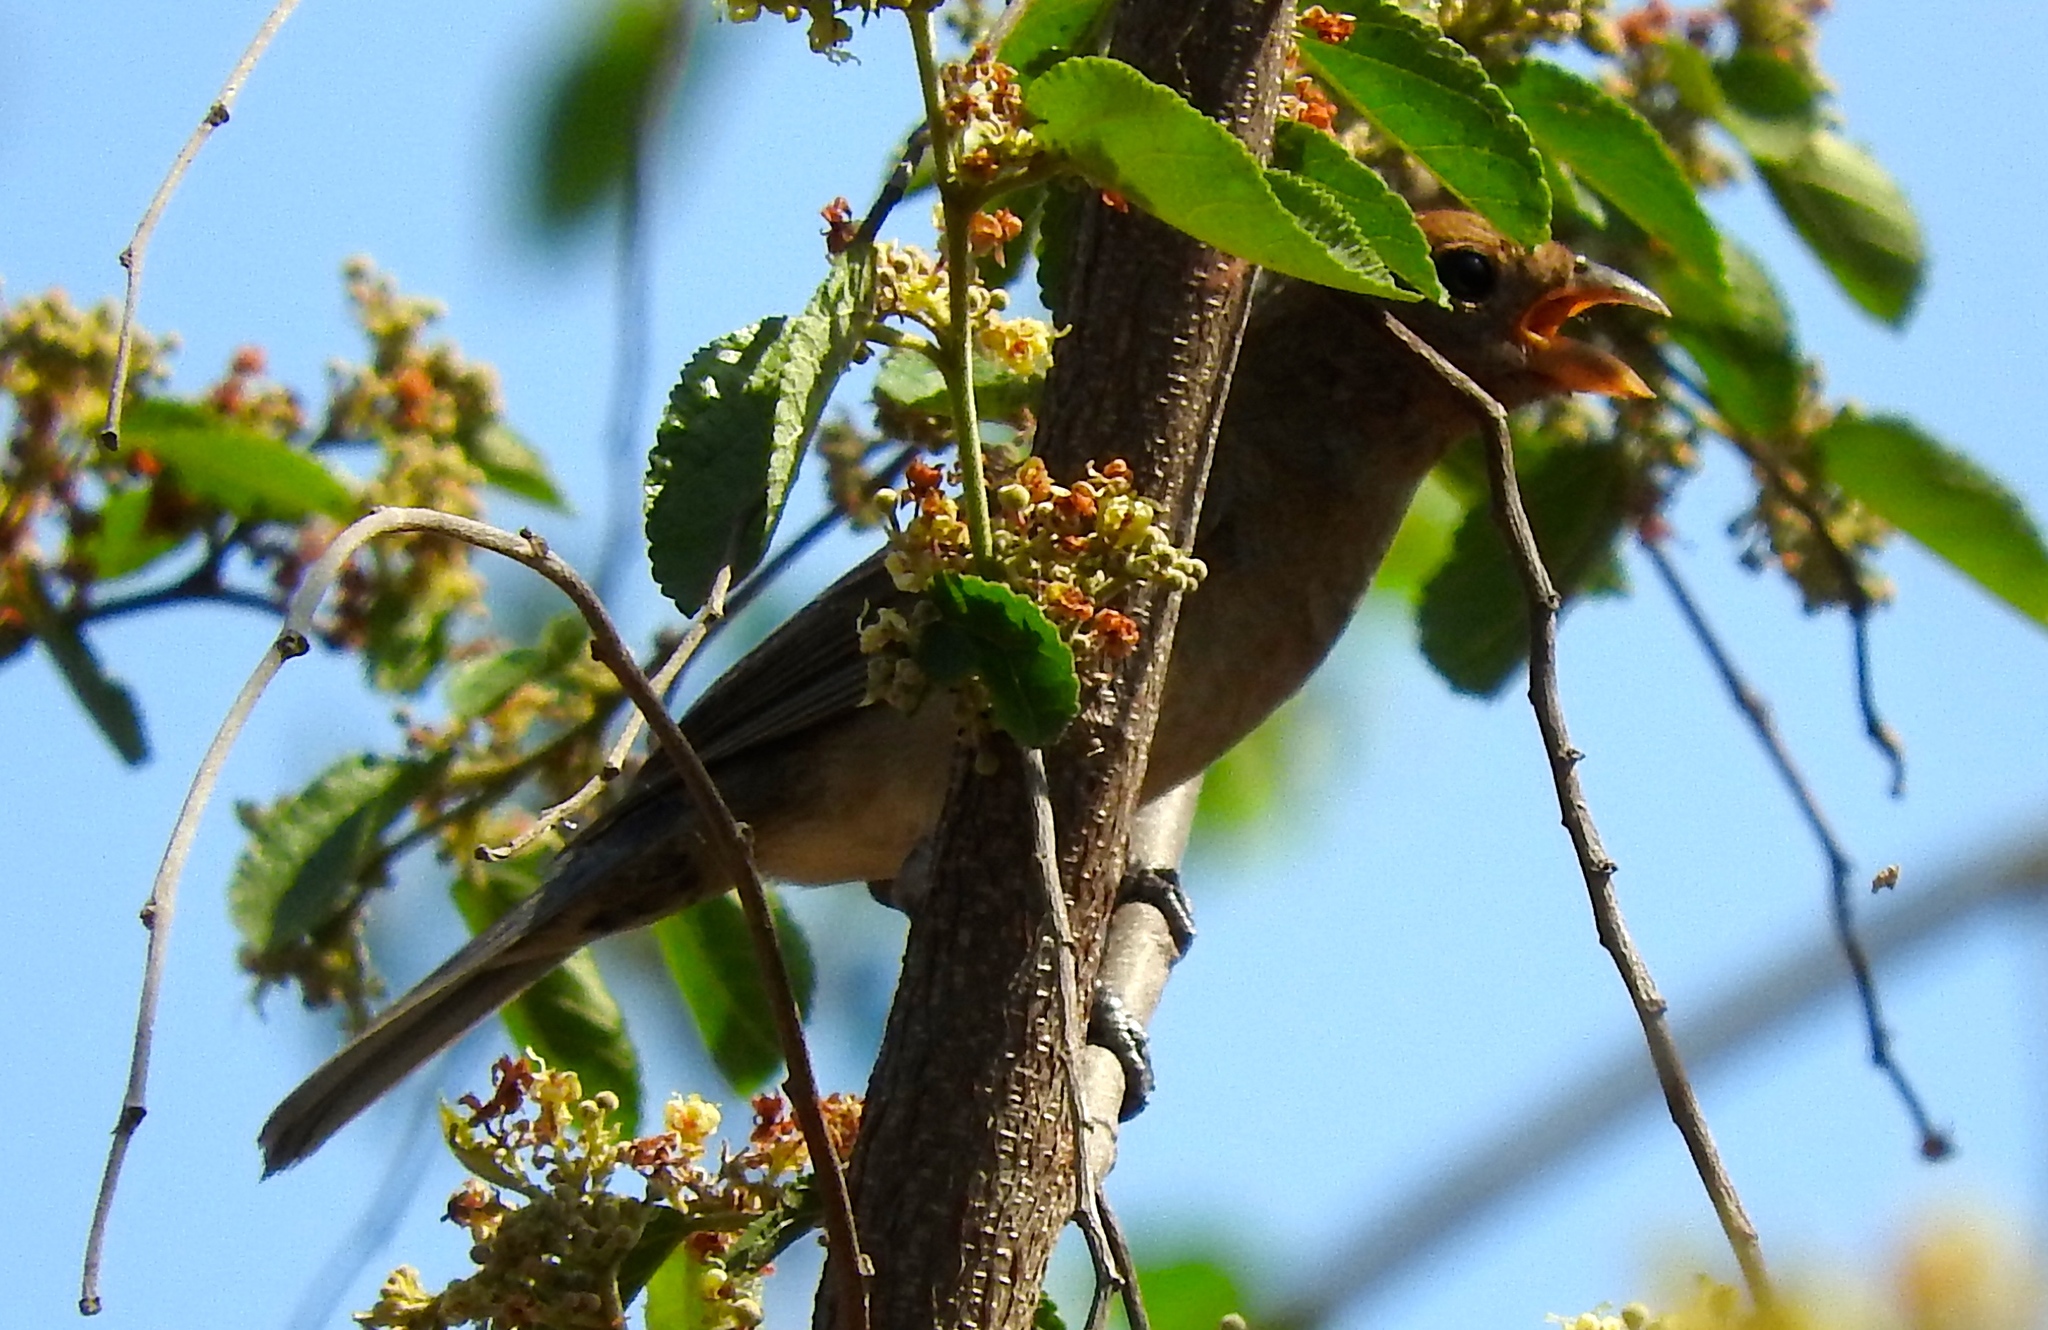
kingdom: Animalia
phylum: Chordata
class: Aves
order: Passeriformes
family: Cardinalidae
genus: Passerina
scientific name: Passerina
